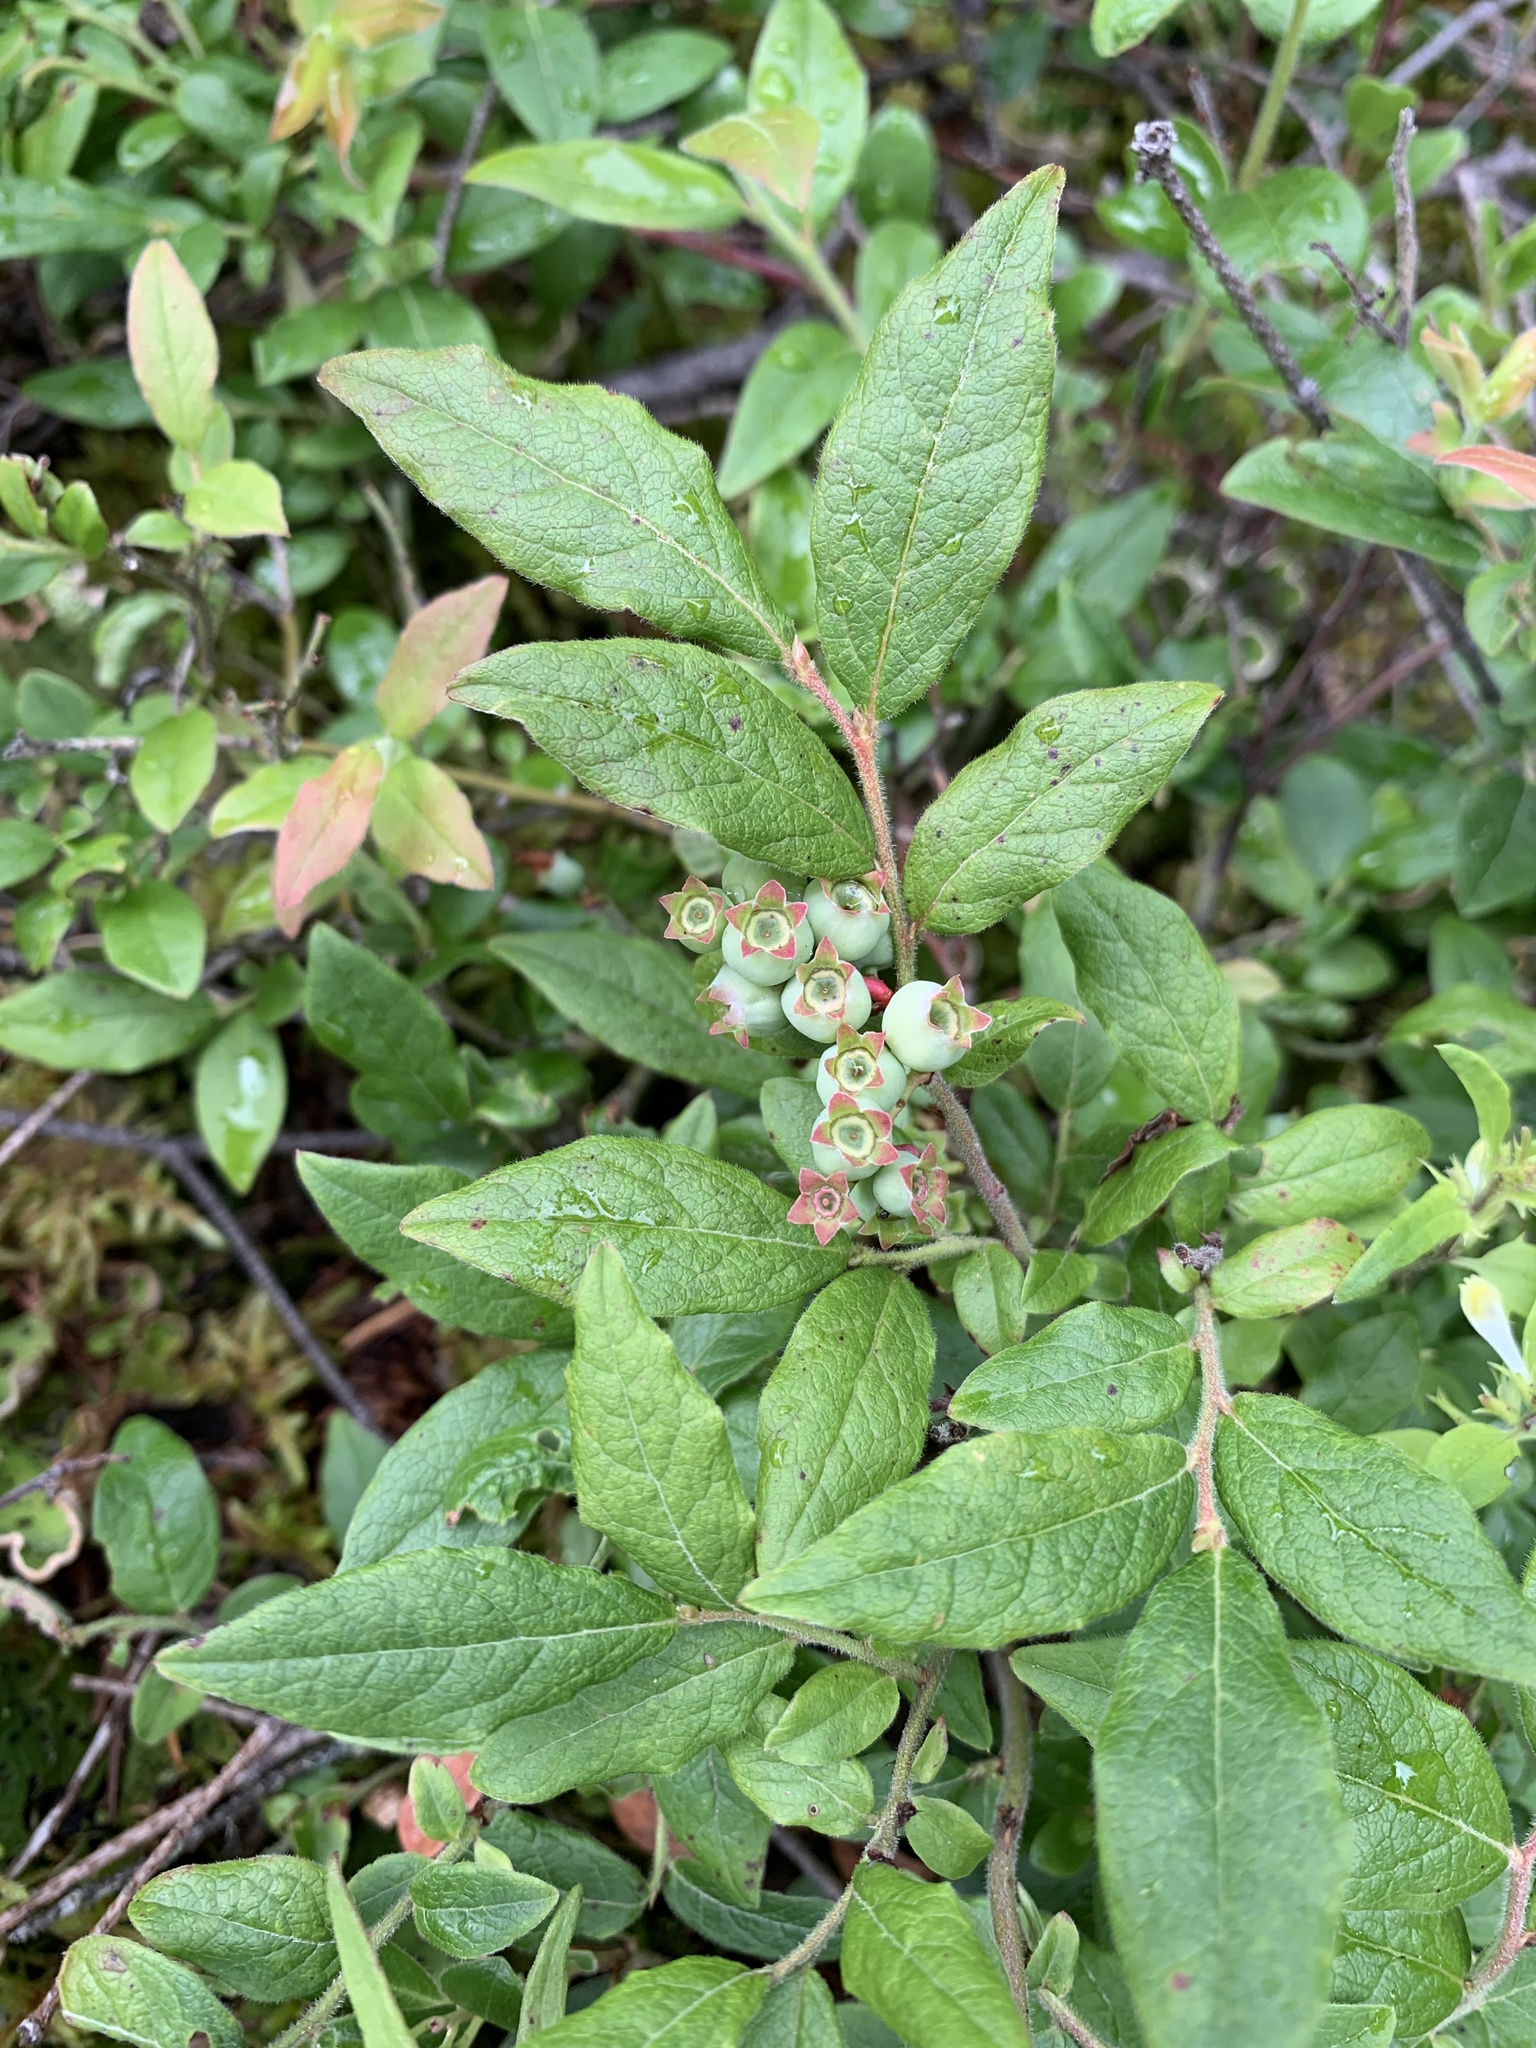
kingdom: Plantae
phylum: Tracheophyta
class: Magnoliopsida
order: Ericales
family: Ericaceae
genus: Vaccinium
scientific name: Vaccinium myrtilloides
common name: Canada blueberry
